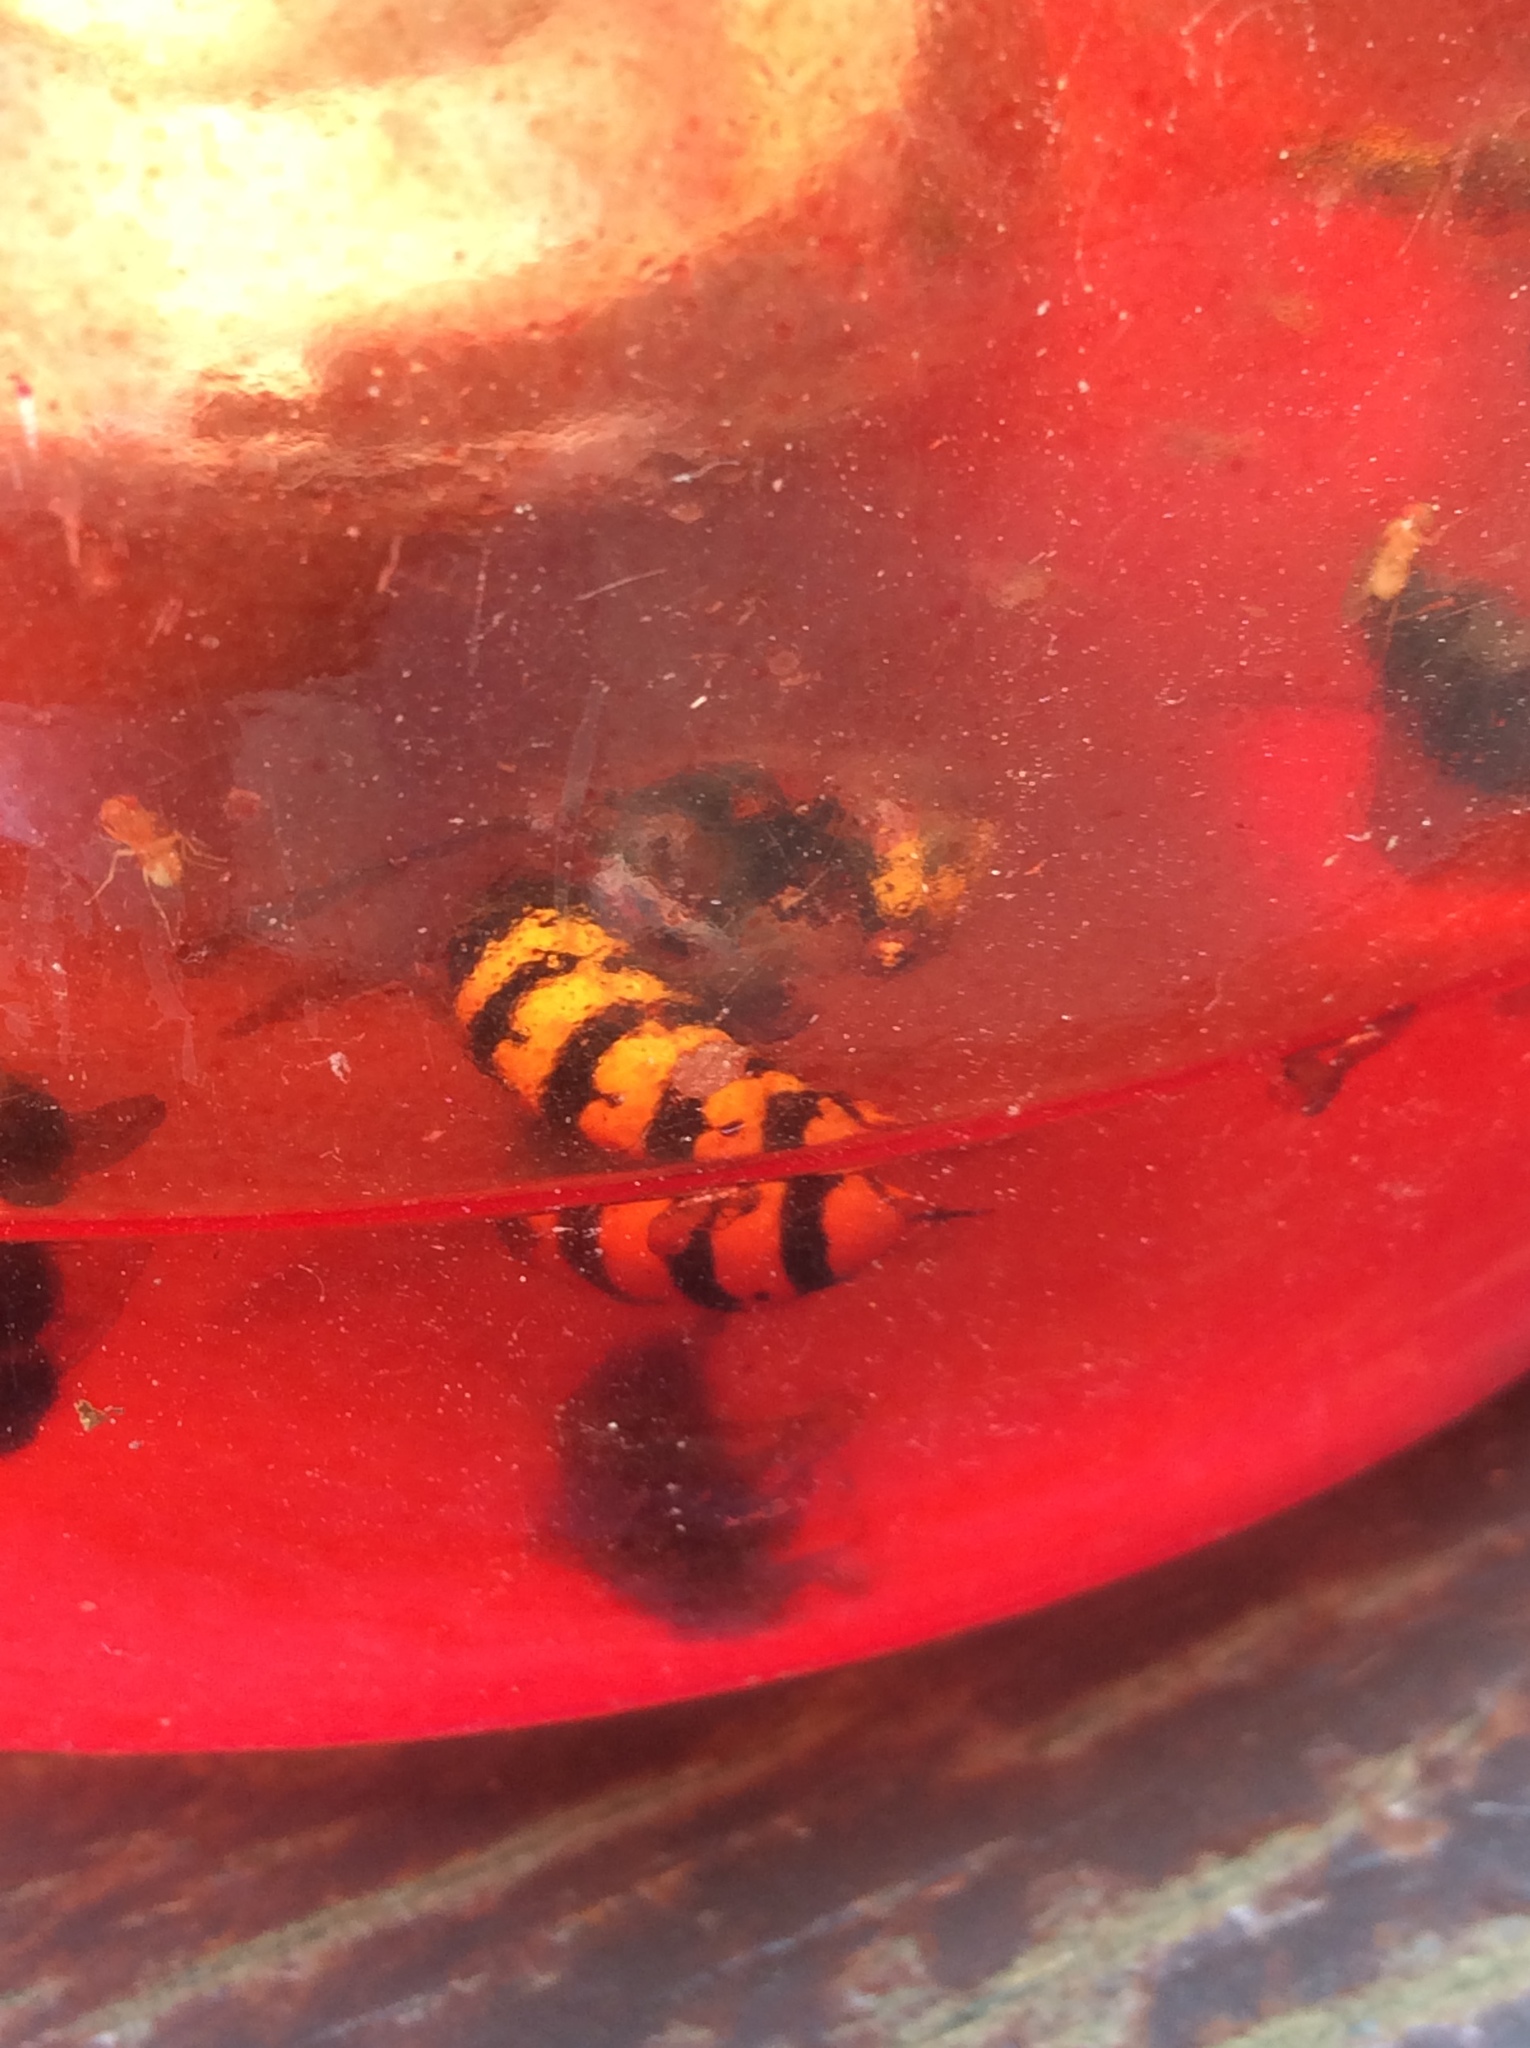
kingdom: Animalia
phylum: Arthropoda
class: Insecta
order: Hymenoptera
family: Vespidae
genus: Vespa
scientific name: Vespa crabro
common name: Hornet
